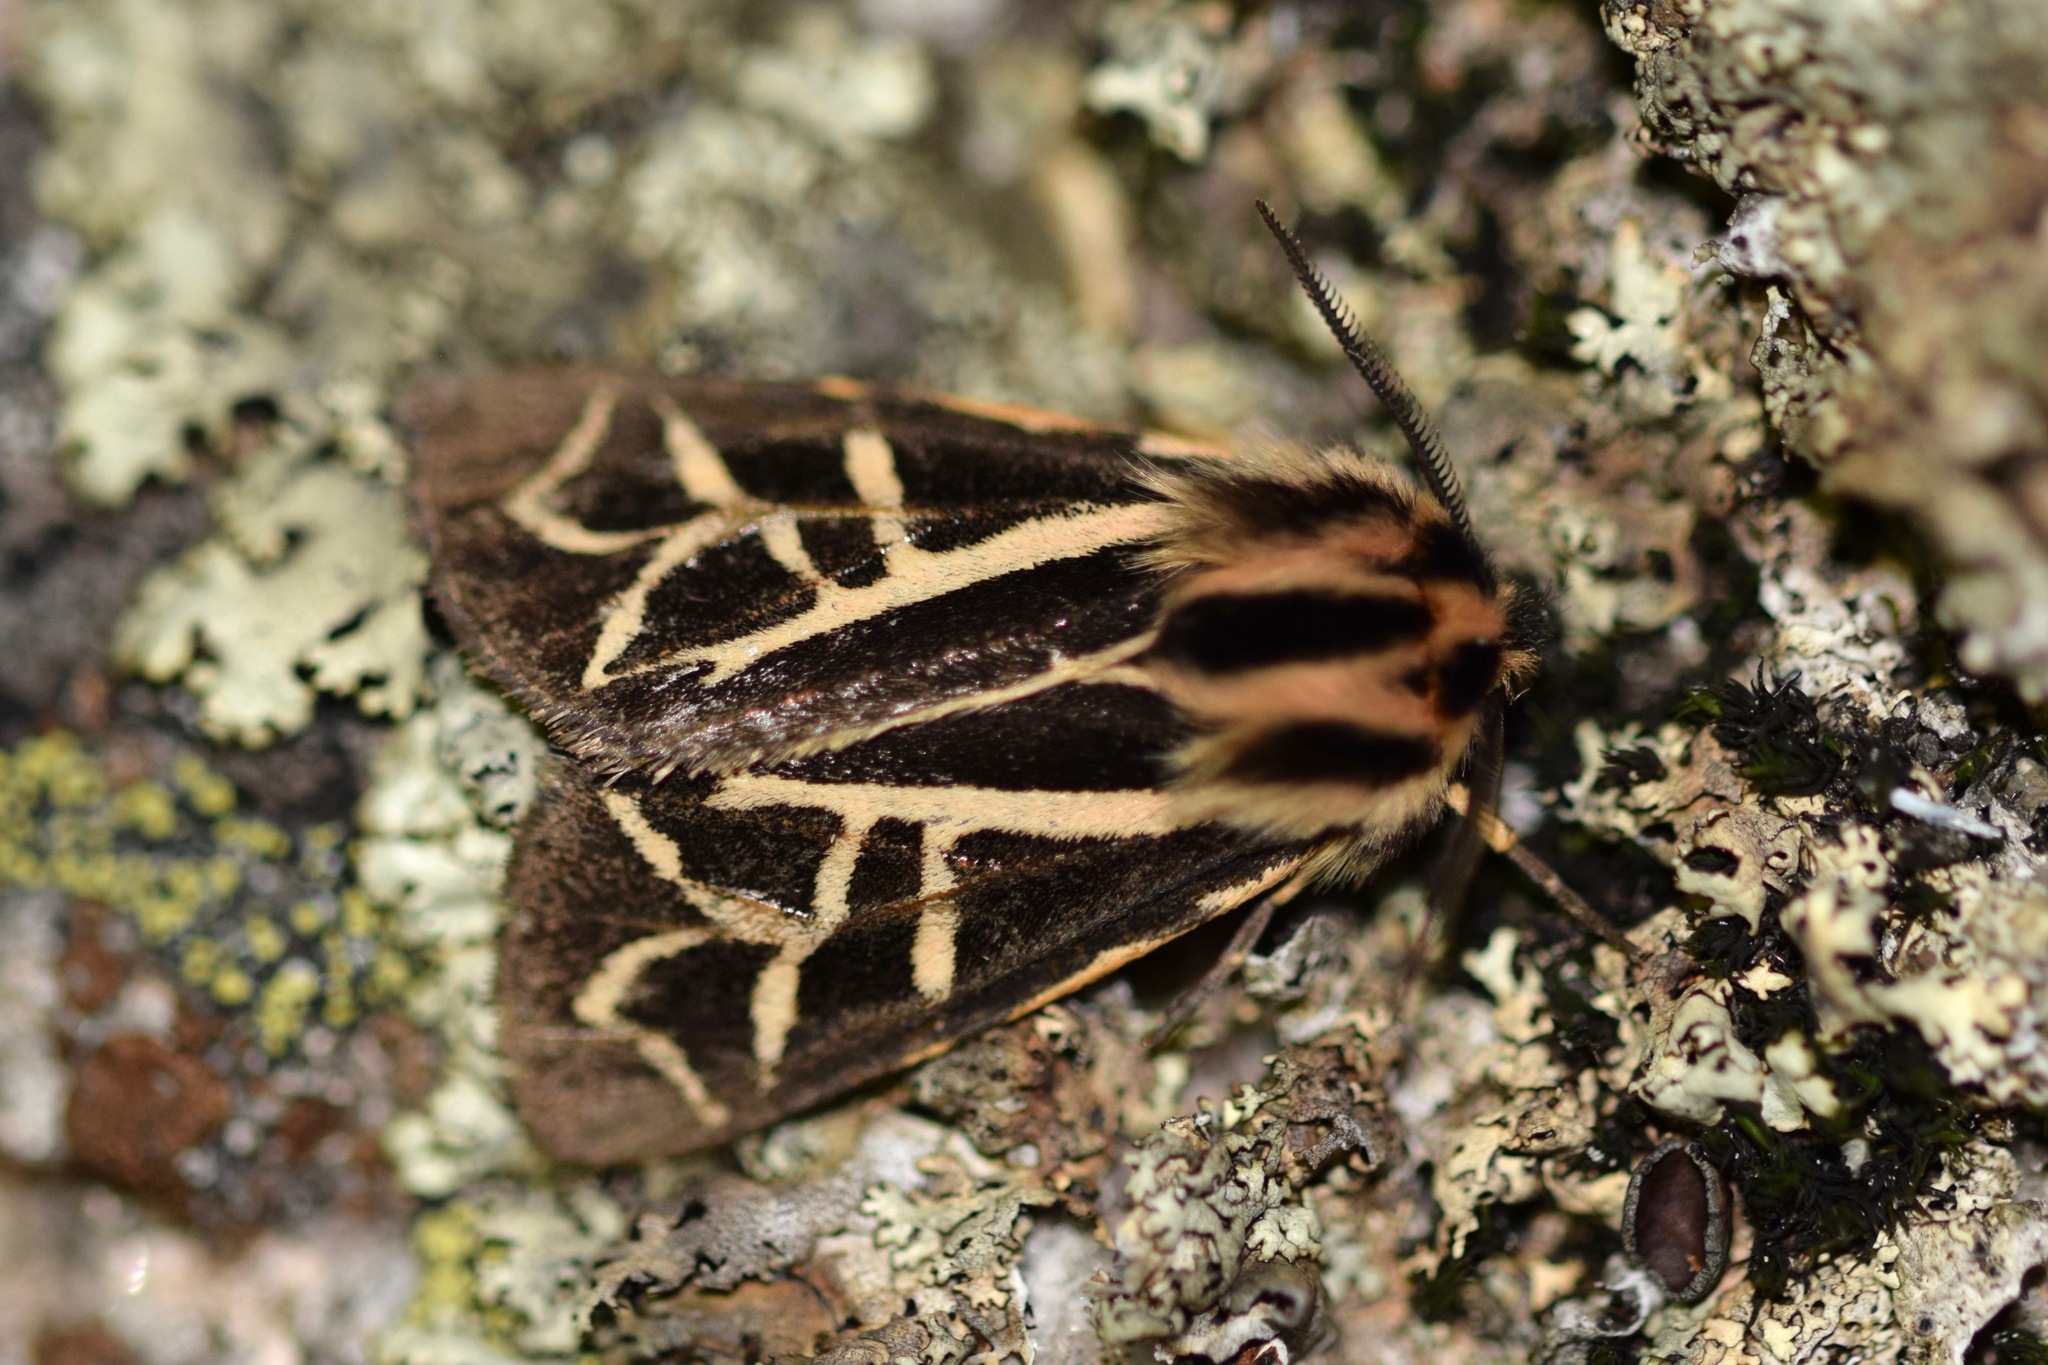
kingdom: Animalia
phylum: Arthropoda
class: Insecta
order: Lepidoptera
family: Erebidae
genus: Apantesis
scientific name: Apantesis
